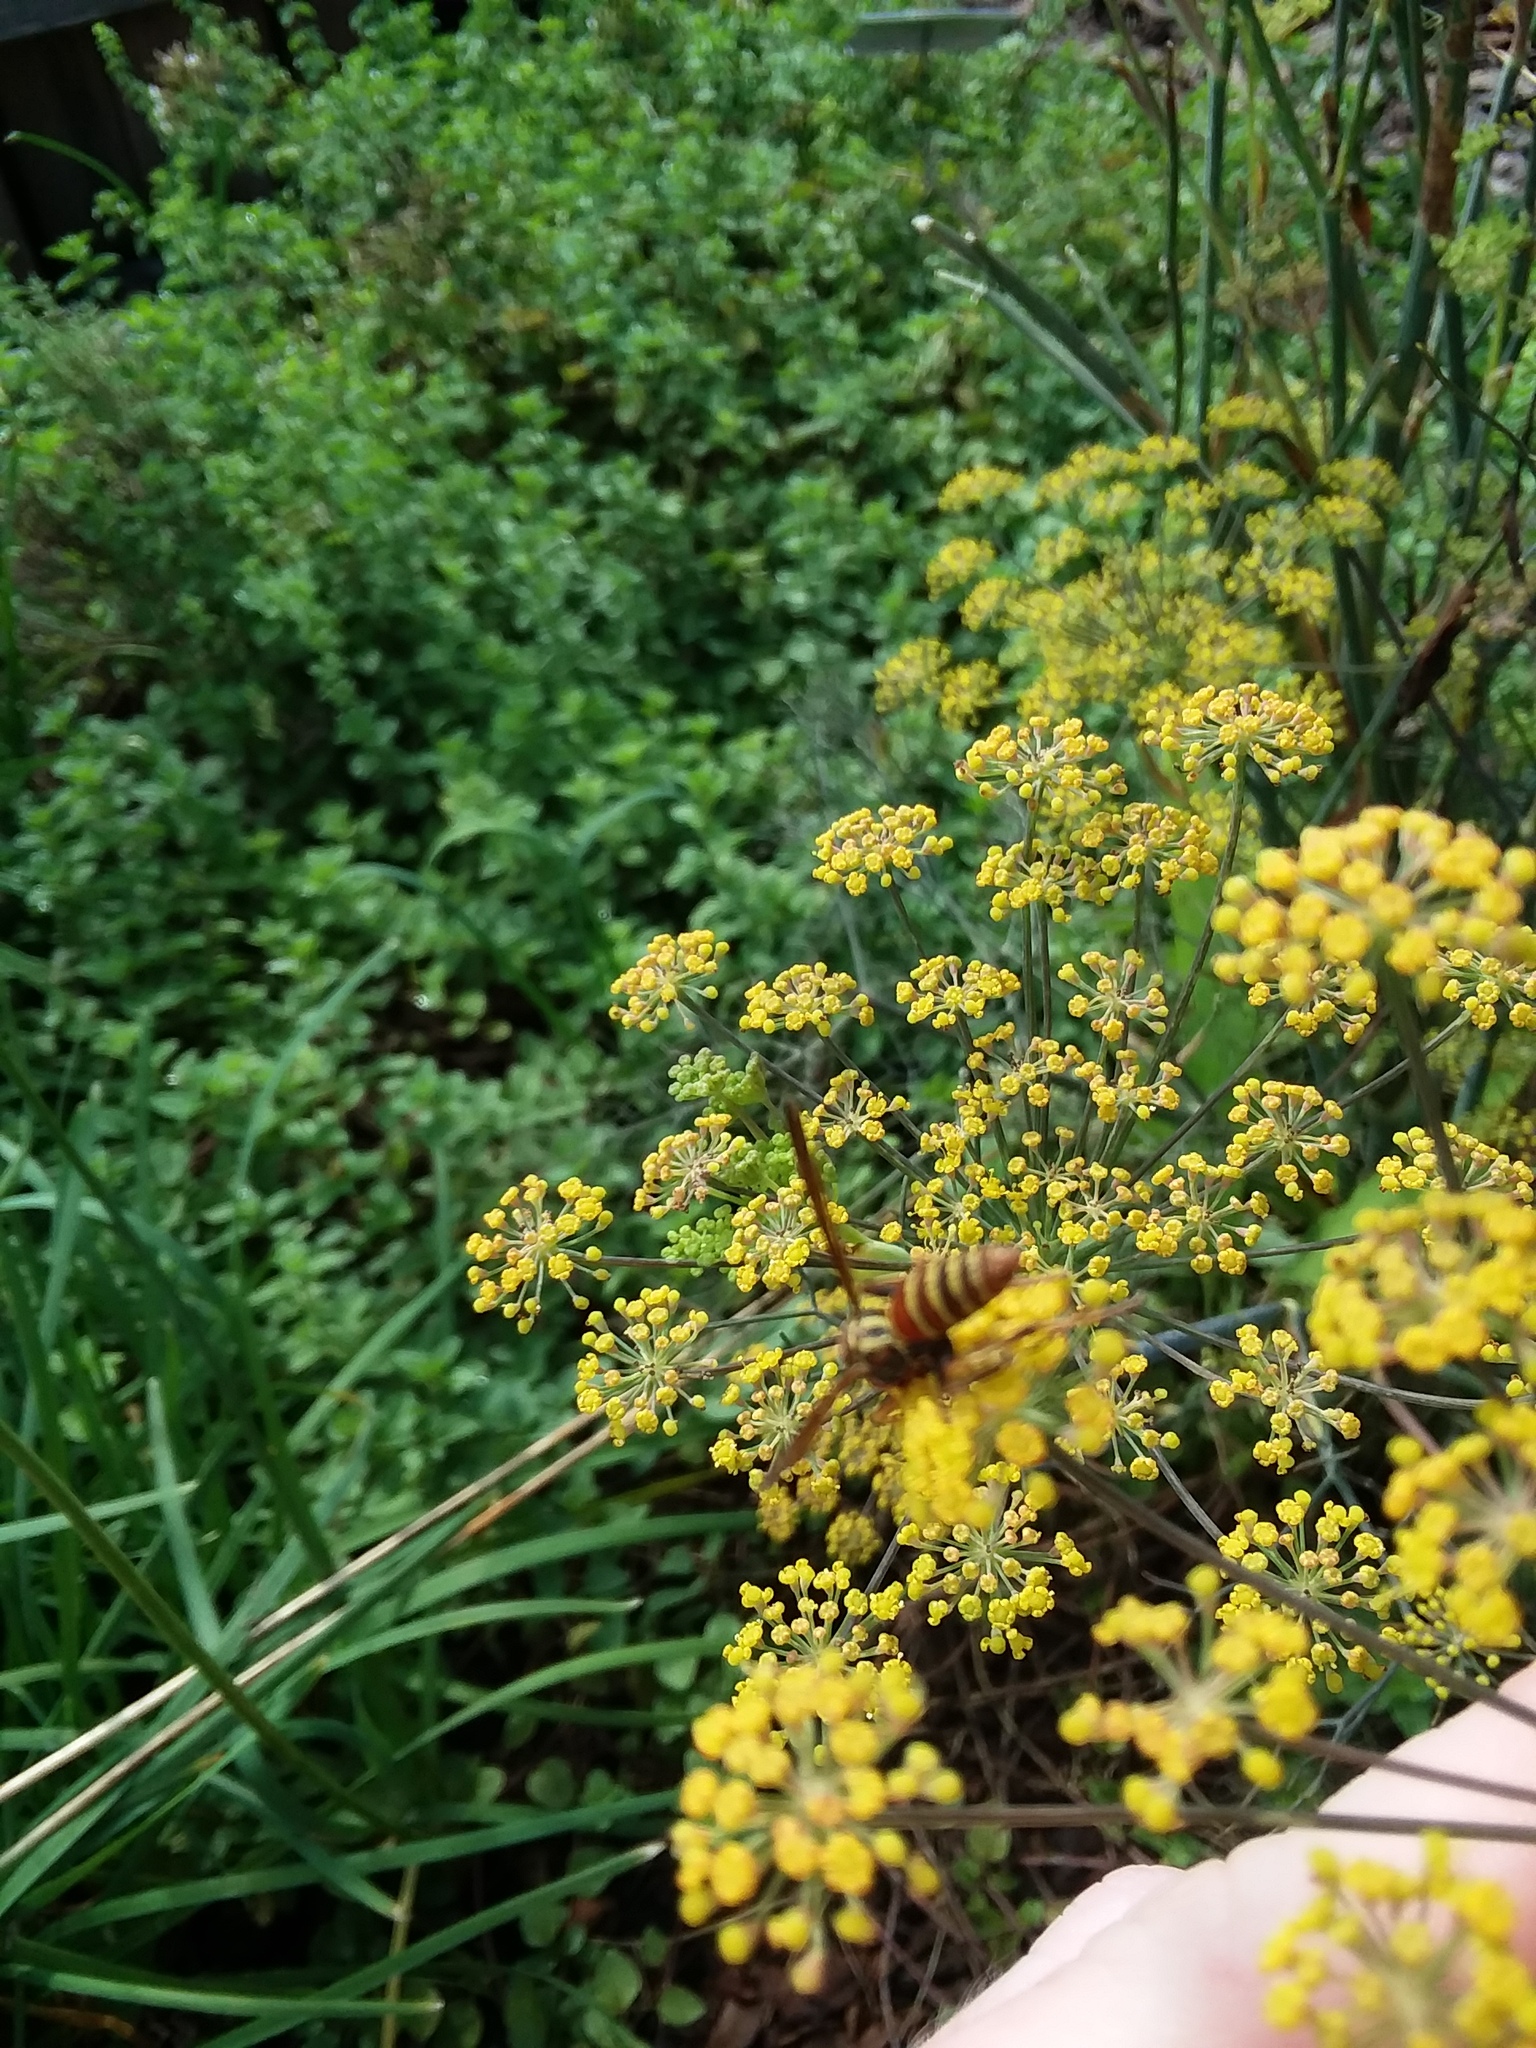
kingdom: Animalia
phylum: Arthropoda
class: Insecta
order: Hymenoptera
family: Eumenidae
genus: Polistes
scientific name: Polistes dorsalis
